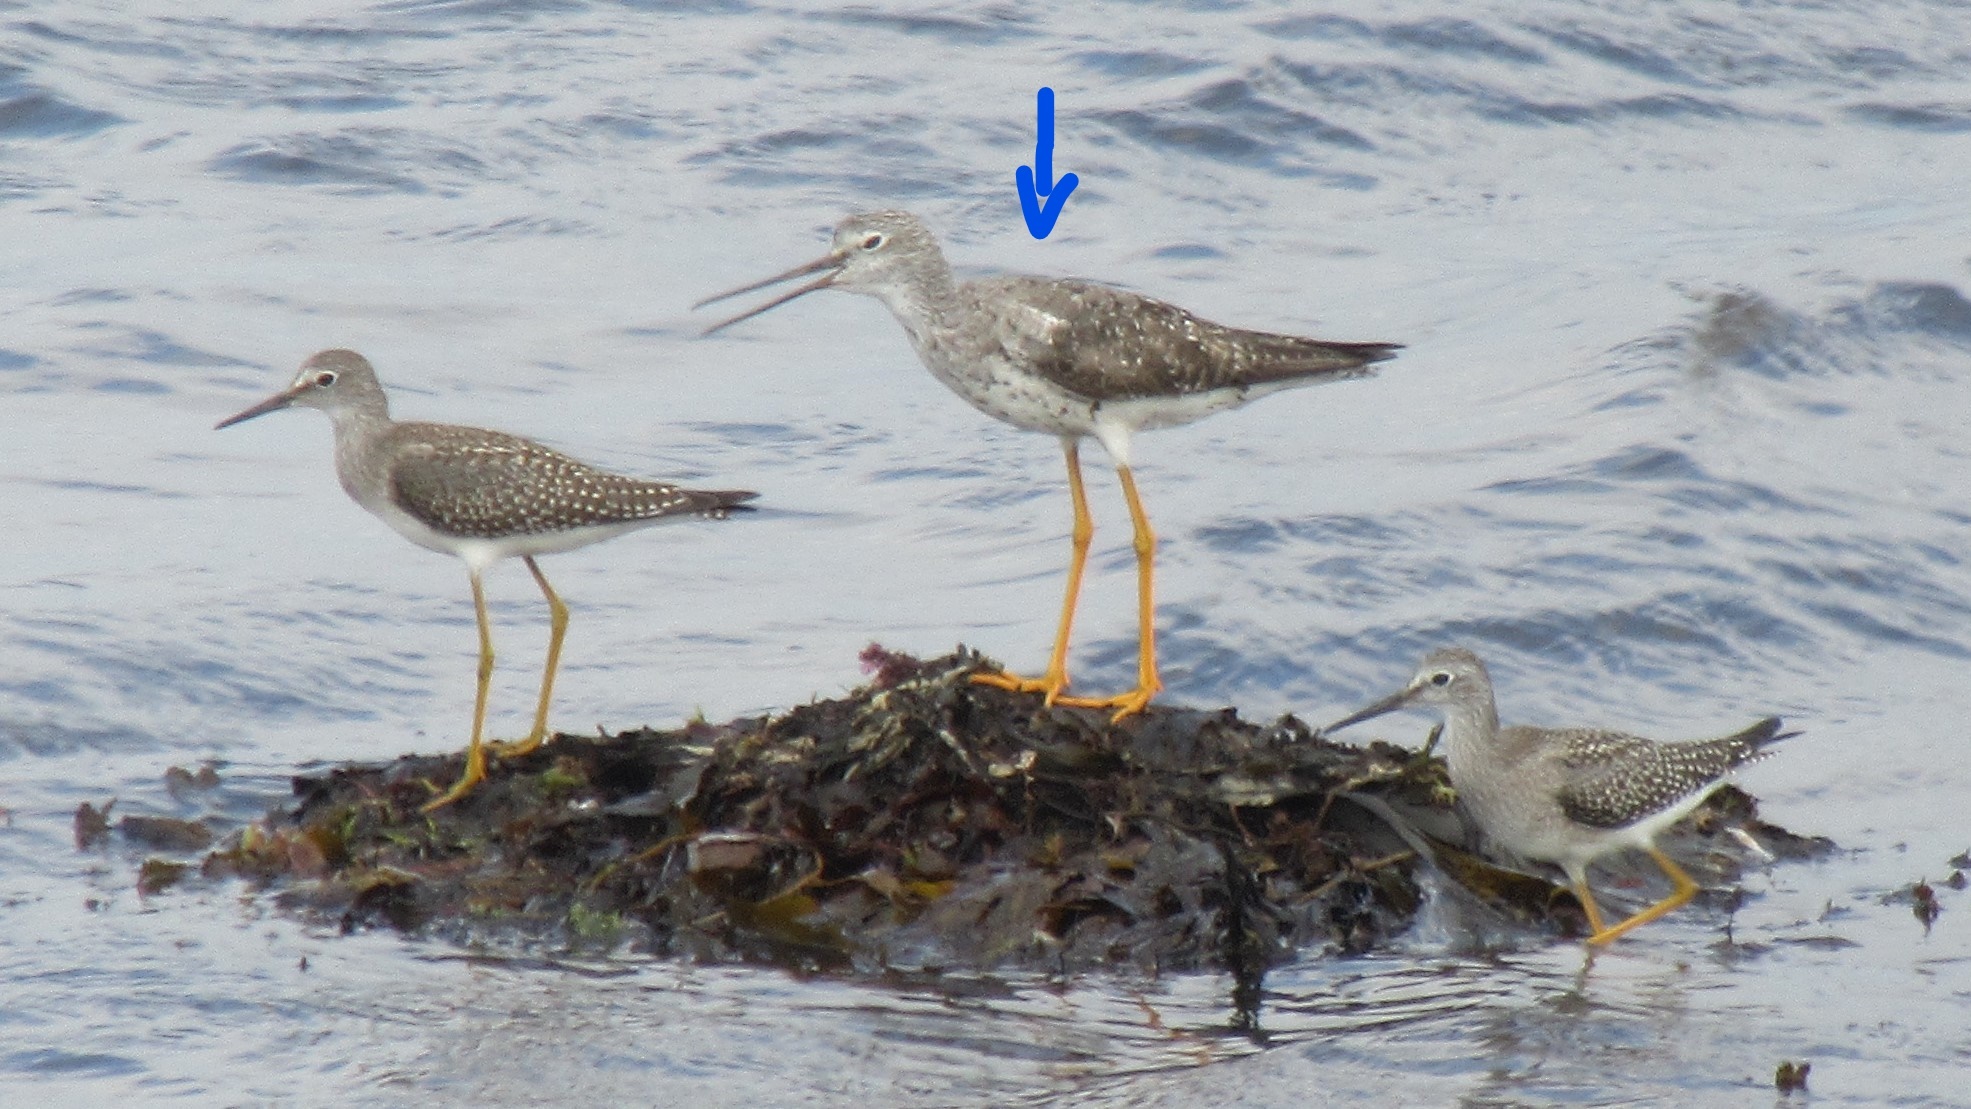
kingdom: Animalia
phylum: Chordata
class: Aves
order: Charadriiformes
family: Scolopacidae
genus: Tringa
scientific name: Tringa melanoleuca
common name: Greater yellowlegs
